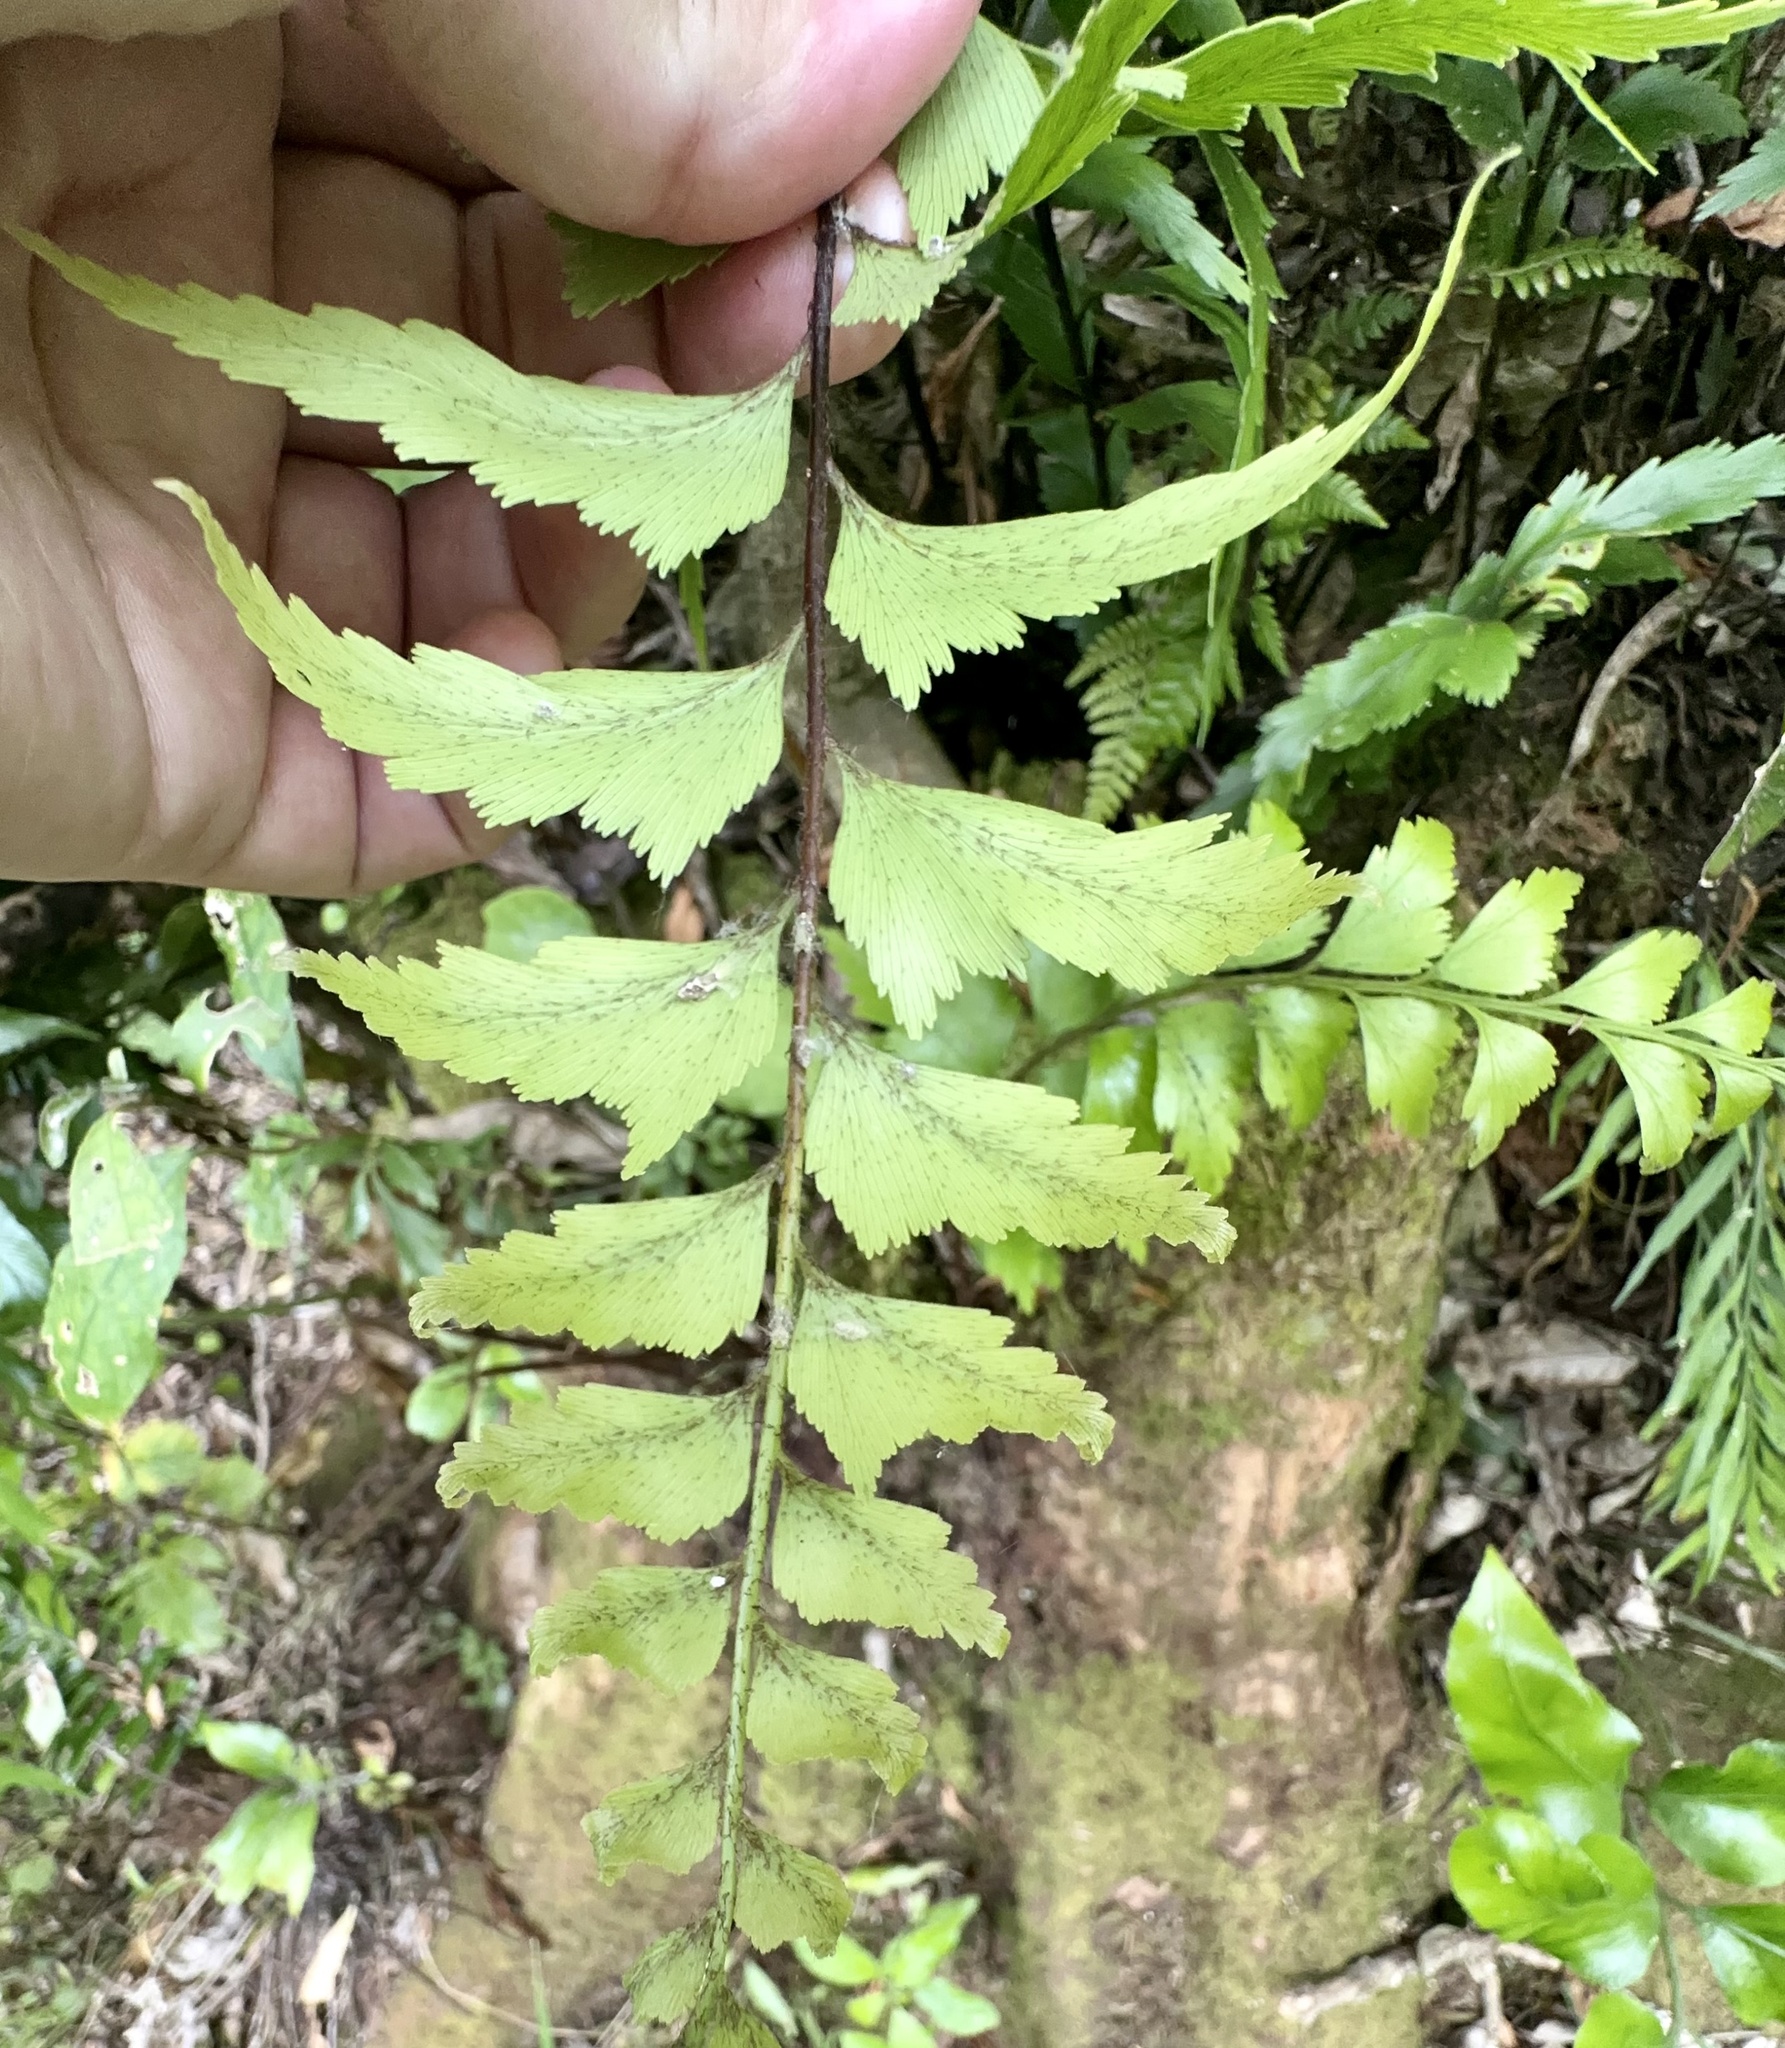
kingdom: Plantae
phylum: Tracheophyta
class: Polypodiopsida
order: Polypodiales
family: Aspleniaceae
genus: Asplenium
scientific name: Asplenium polyodon
